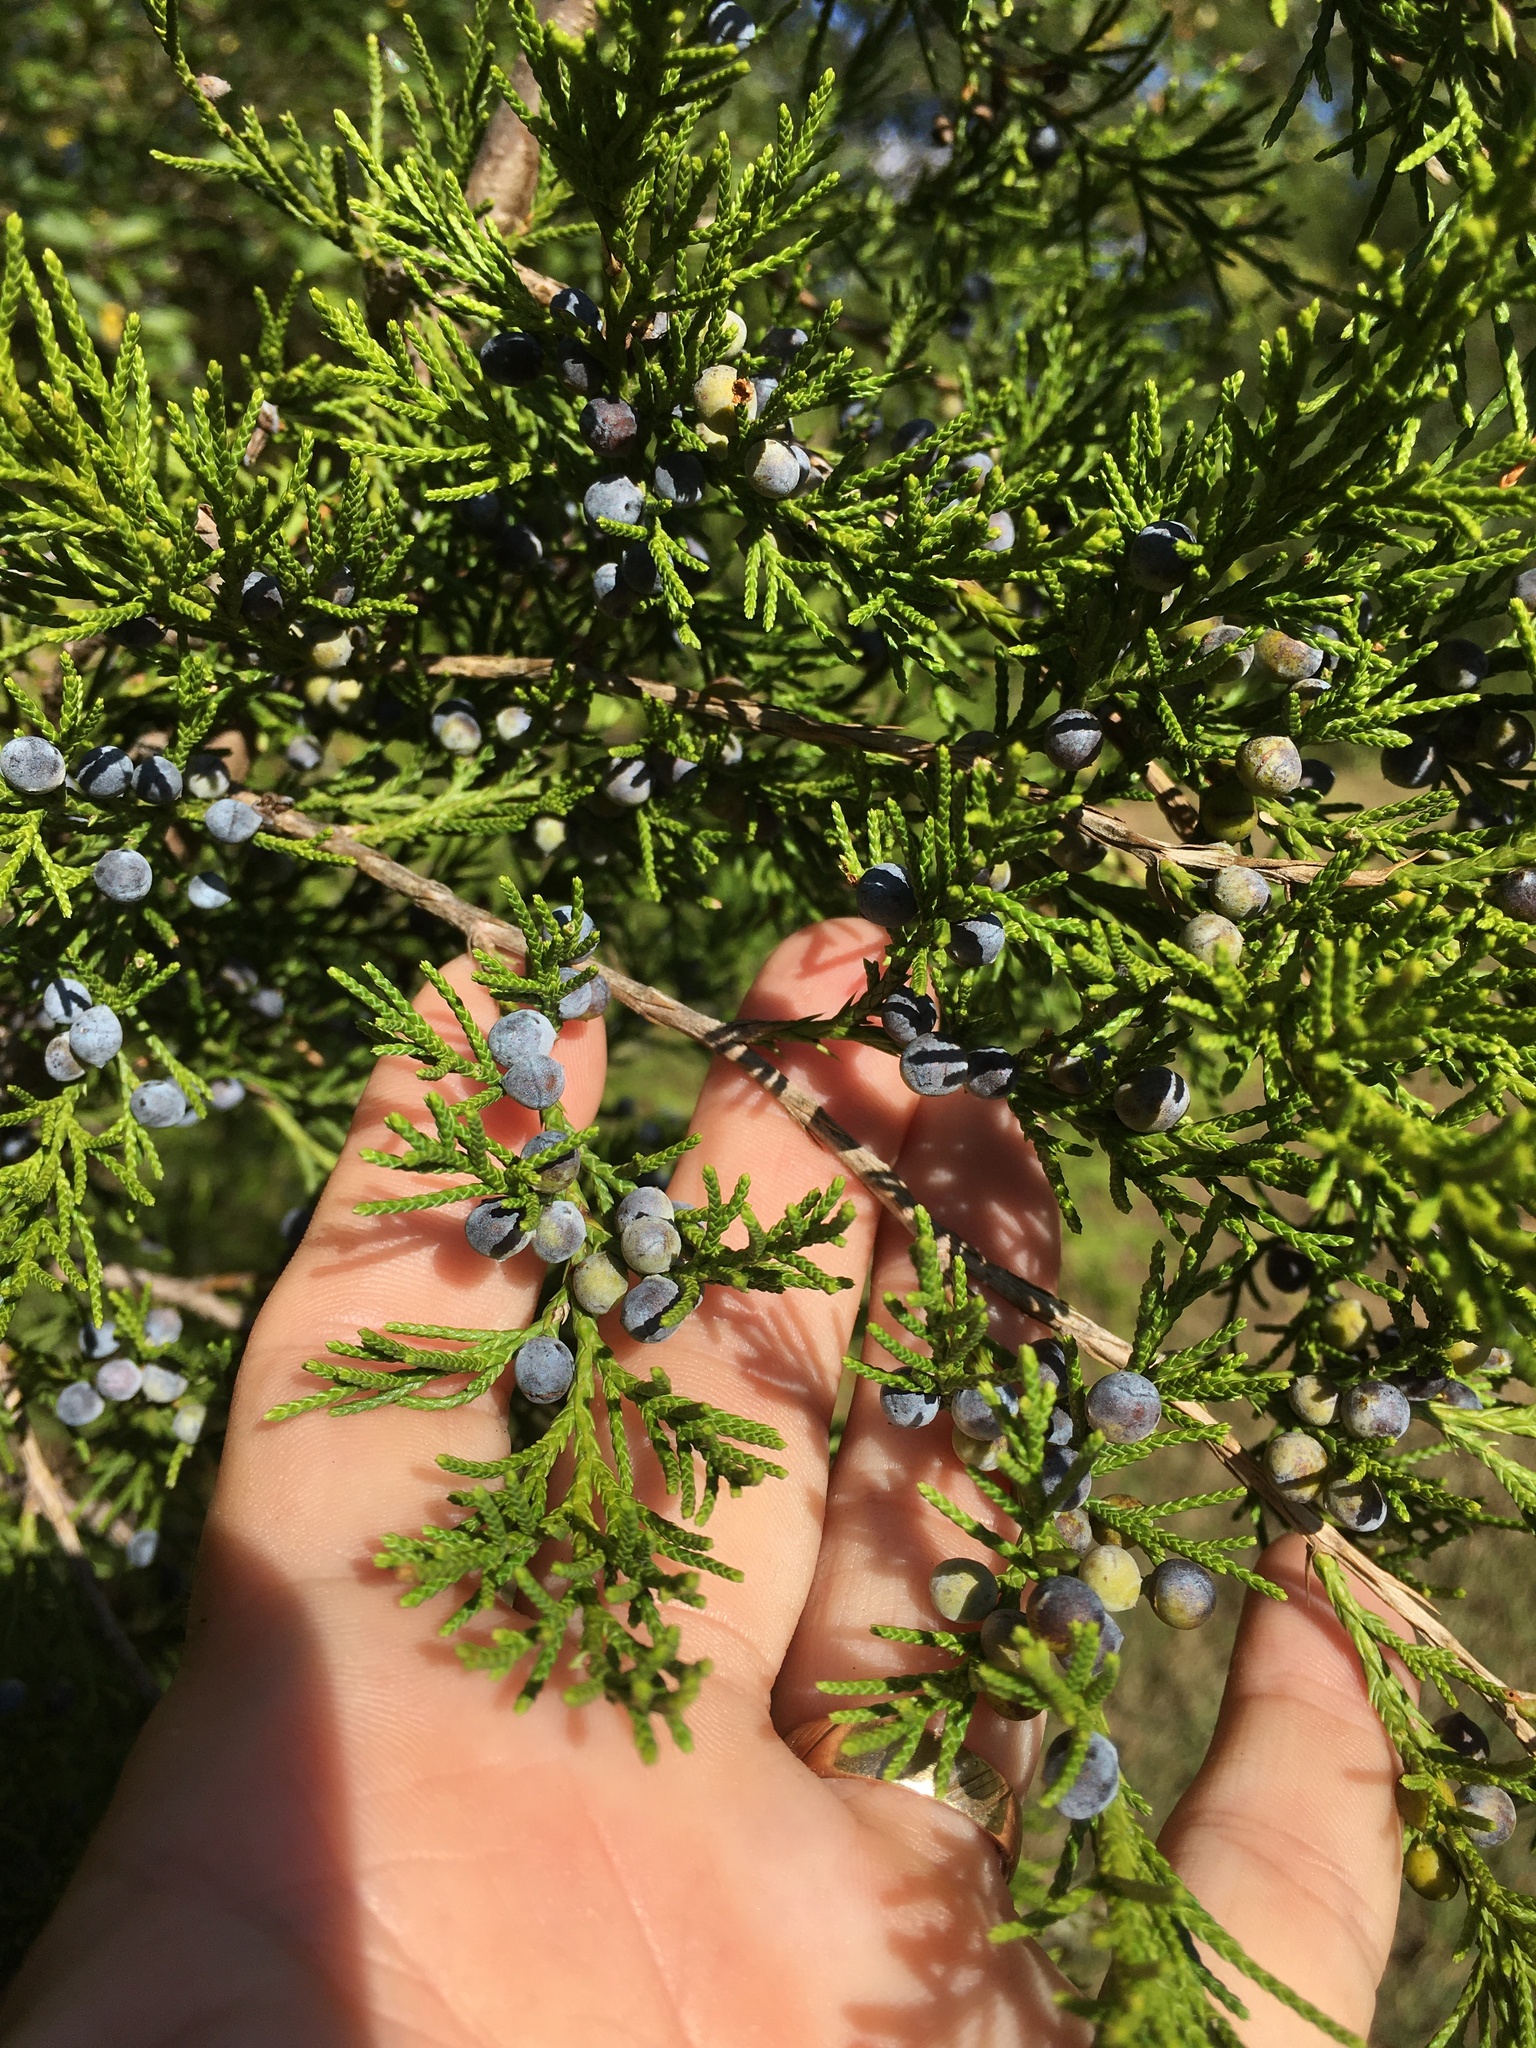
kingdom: Plantae
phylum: Tracheophyta
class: Pinopsida
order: Pinales
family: Cupressaceae
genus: Juniperus
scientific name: Juniperus virginiana
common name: Red juniper
